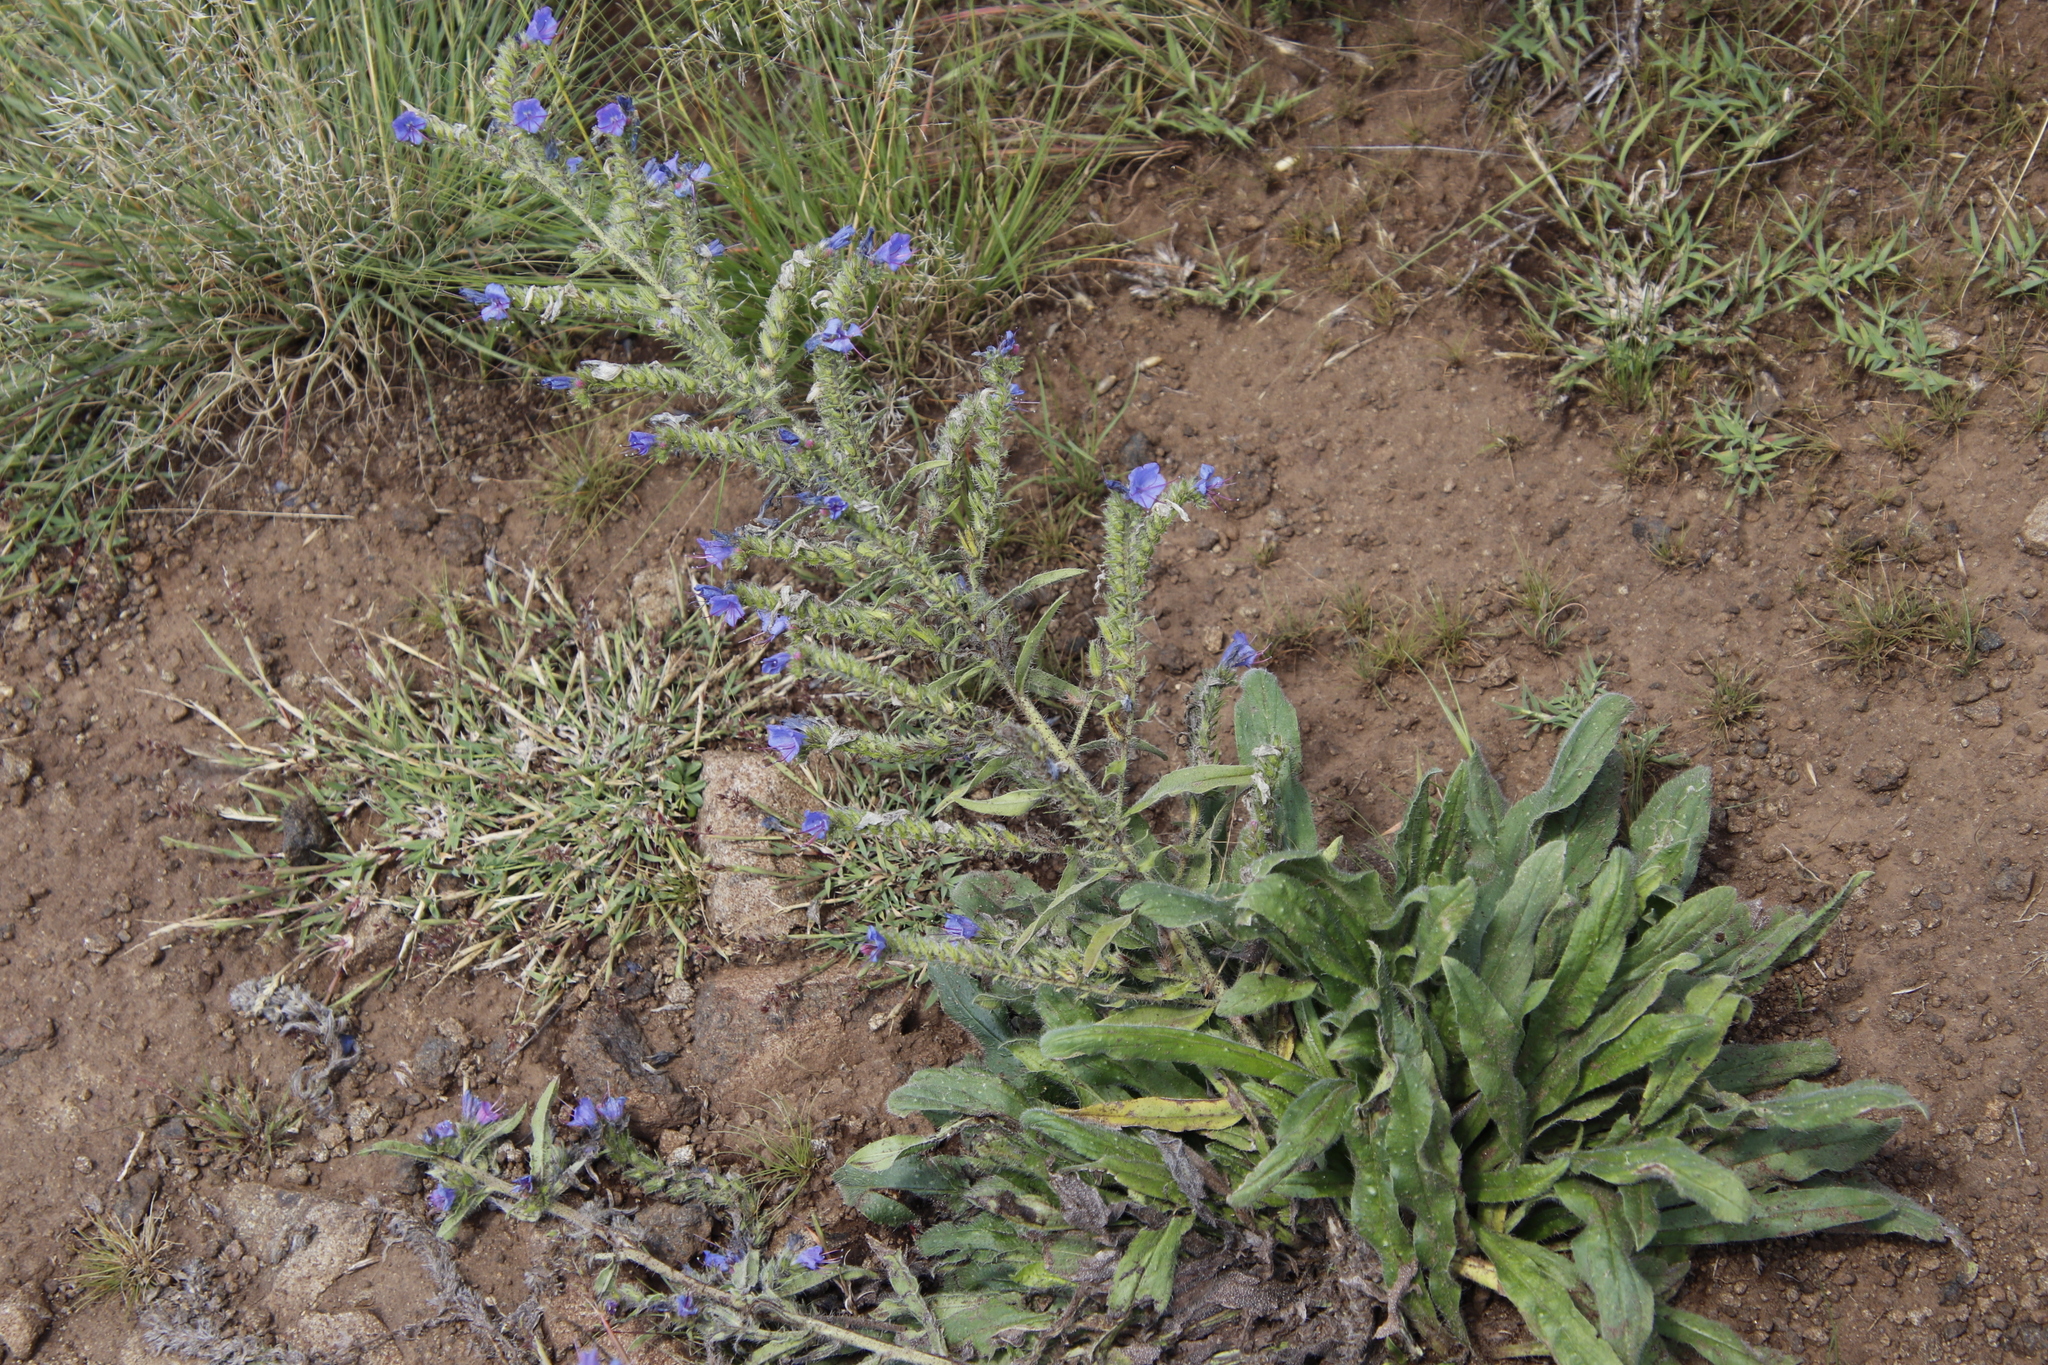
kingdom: Plantae
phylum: Tracheophyta
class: Magnoliopsida
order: Boraginales
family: Boraginaceae
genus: Echium
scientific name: Echium vulgare
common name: Common viper's bugloss
